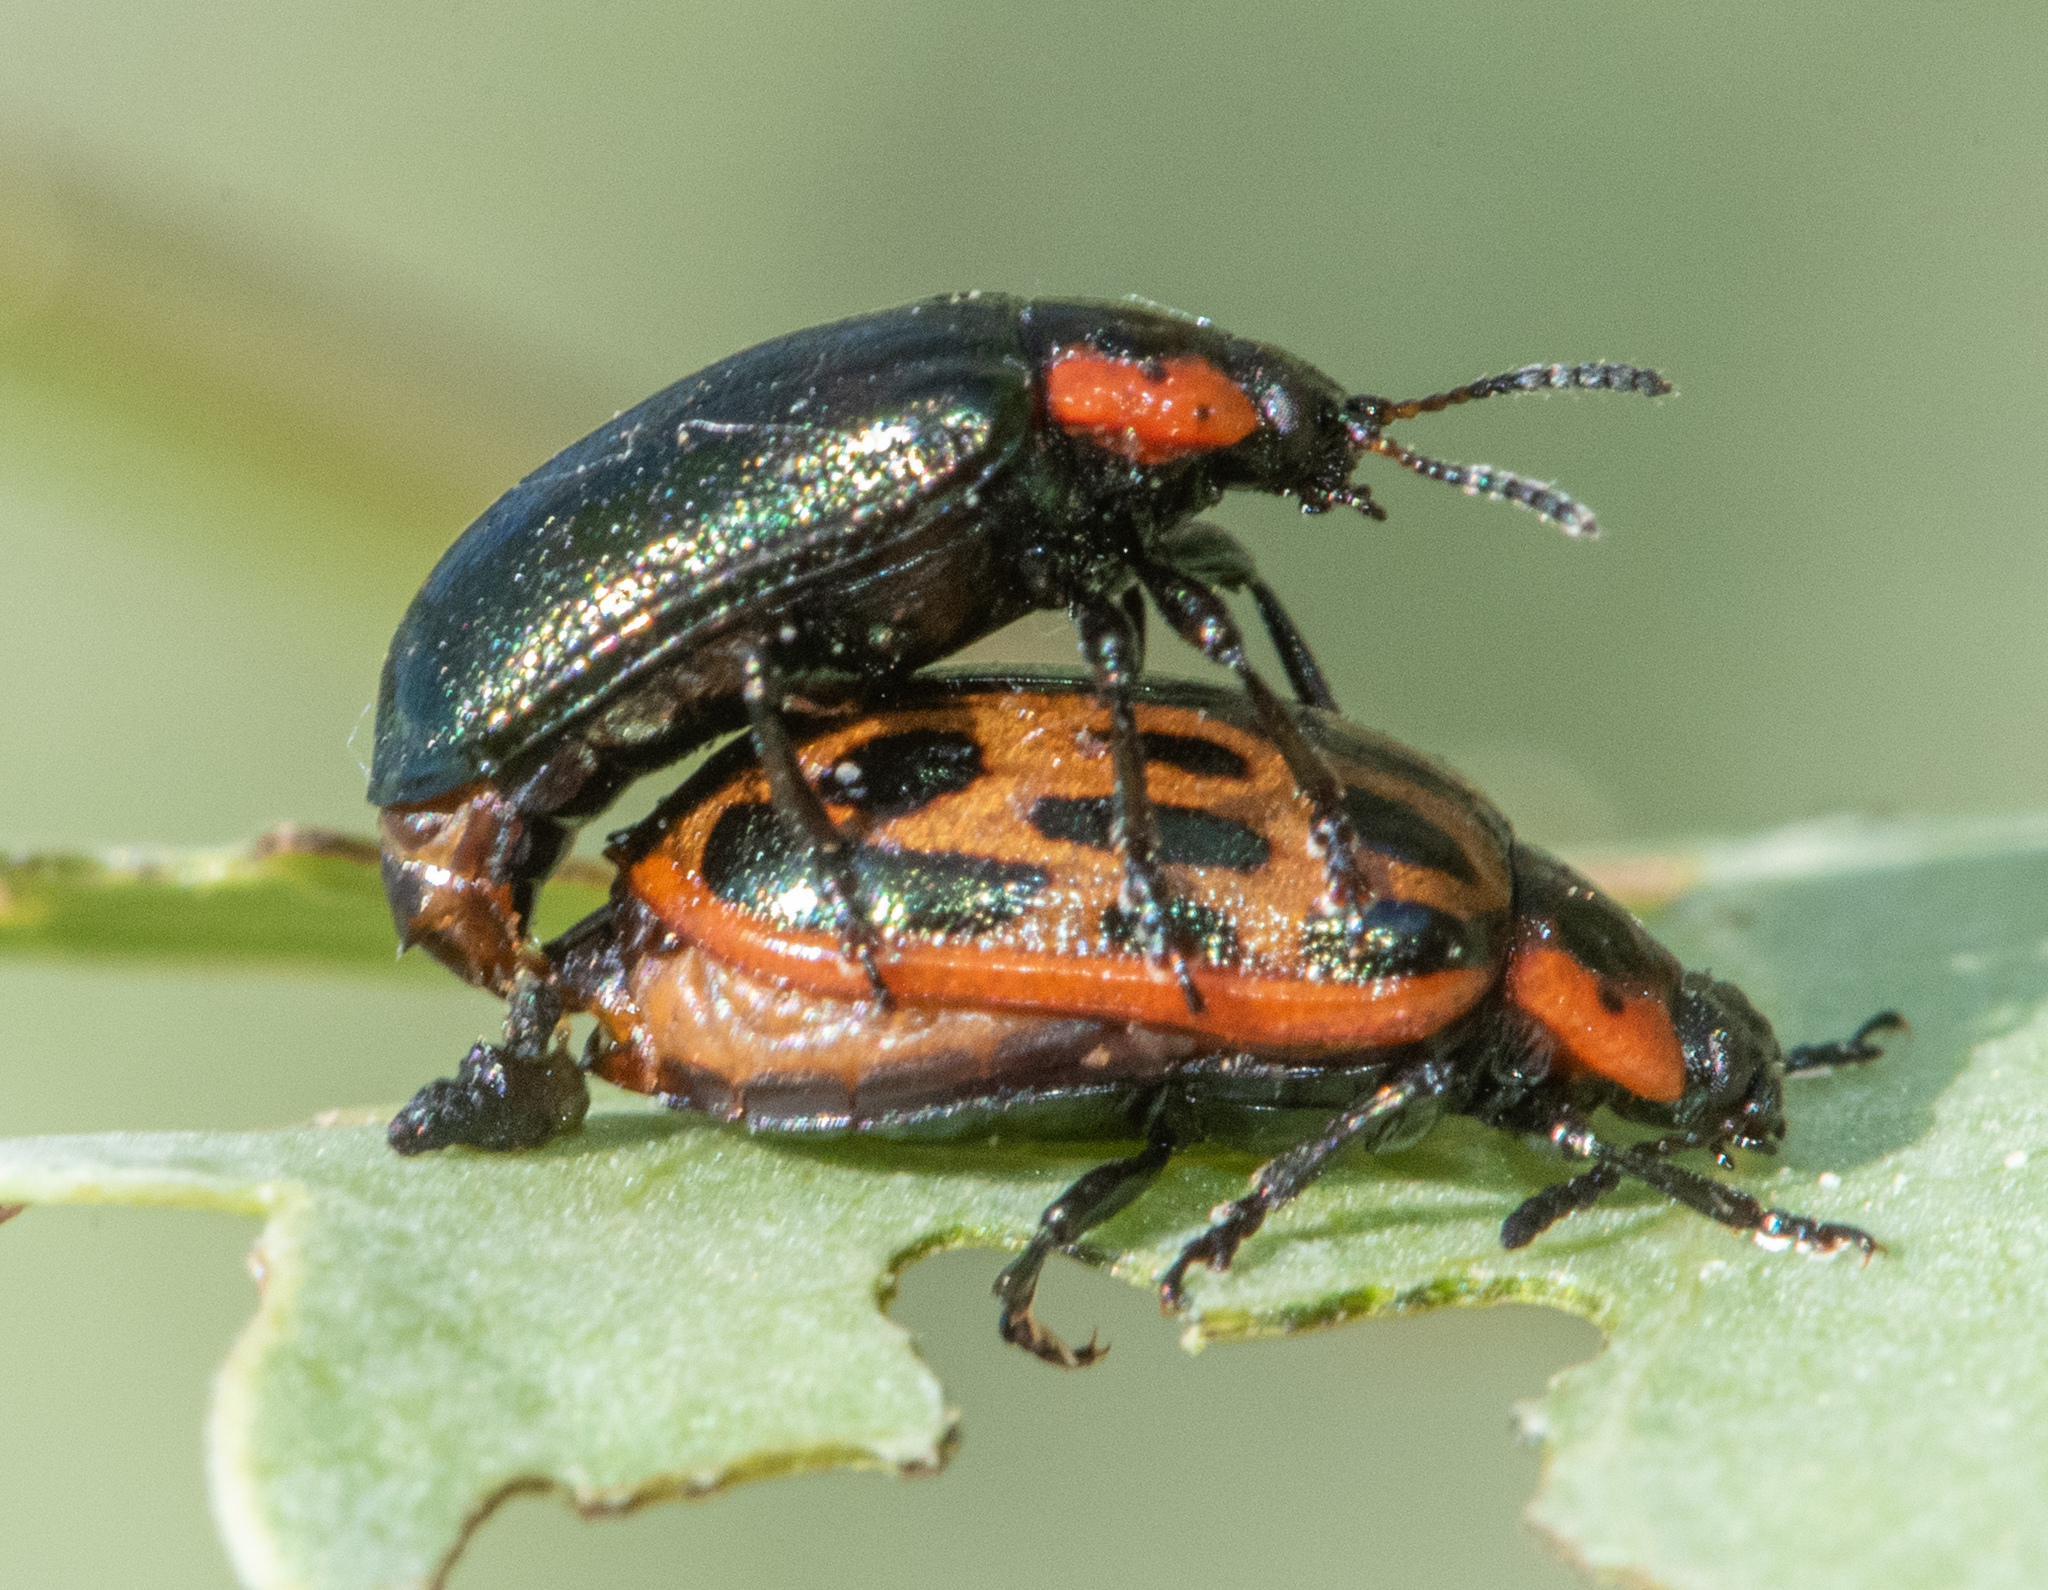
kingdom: Animalia
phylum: Arthropoda
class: Insecta
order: Coleoptera
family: Chrysomelidae
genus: Chrysomela
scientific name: Chrysomela confluens
